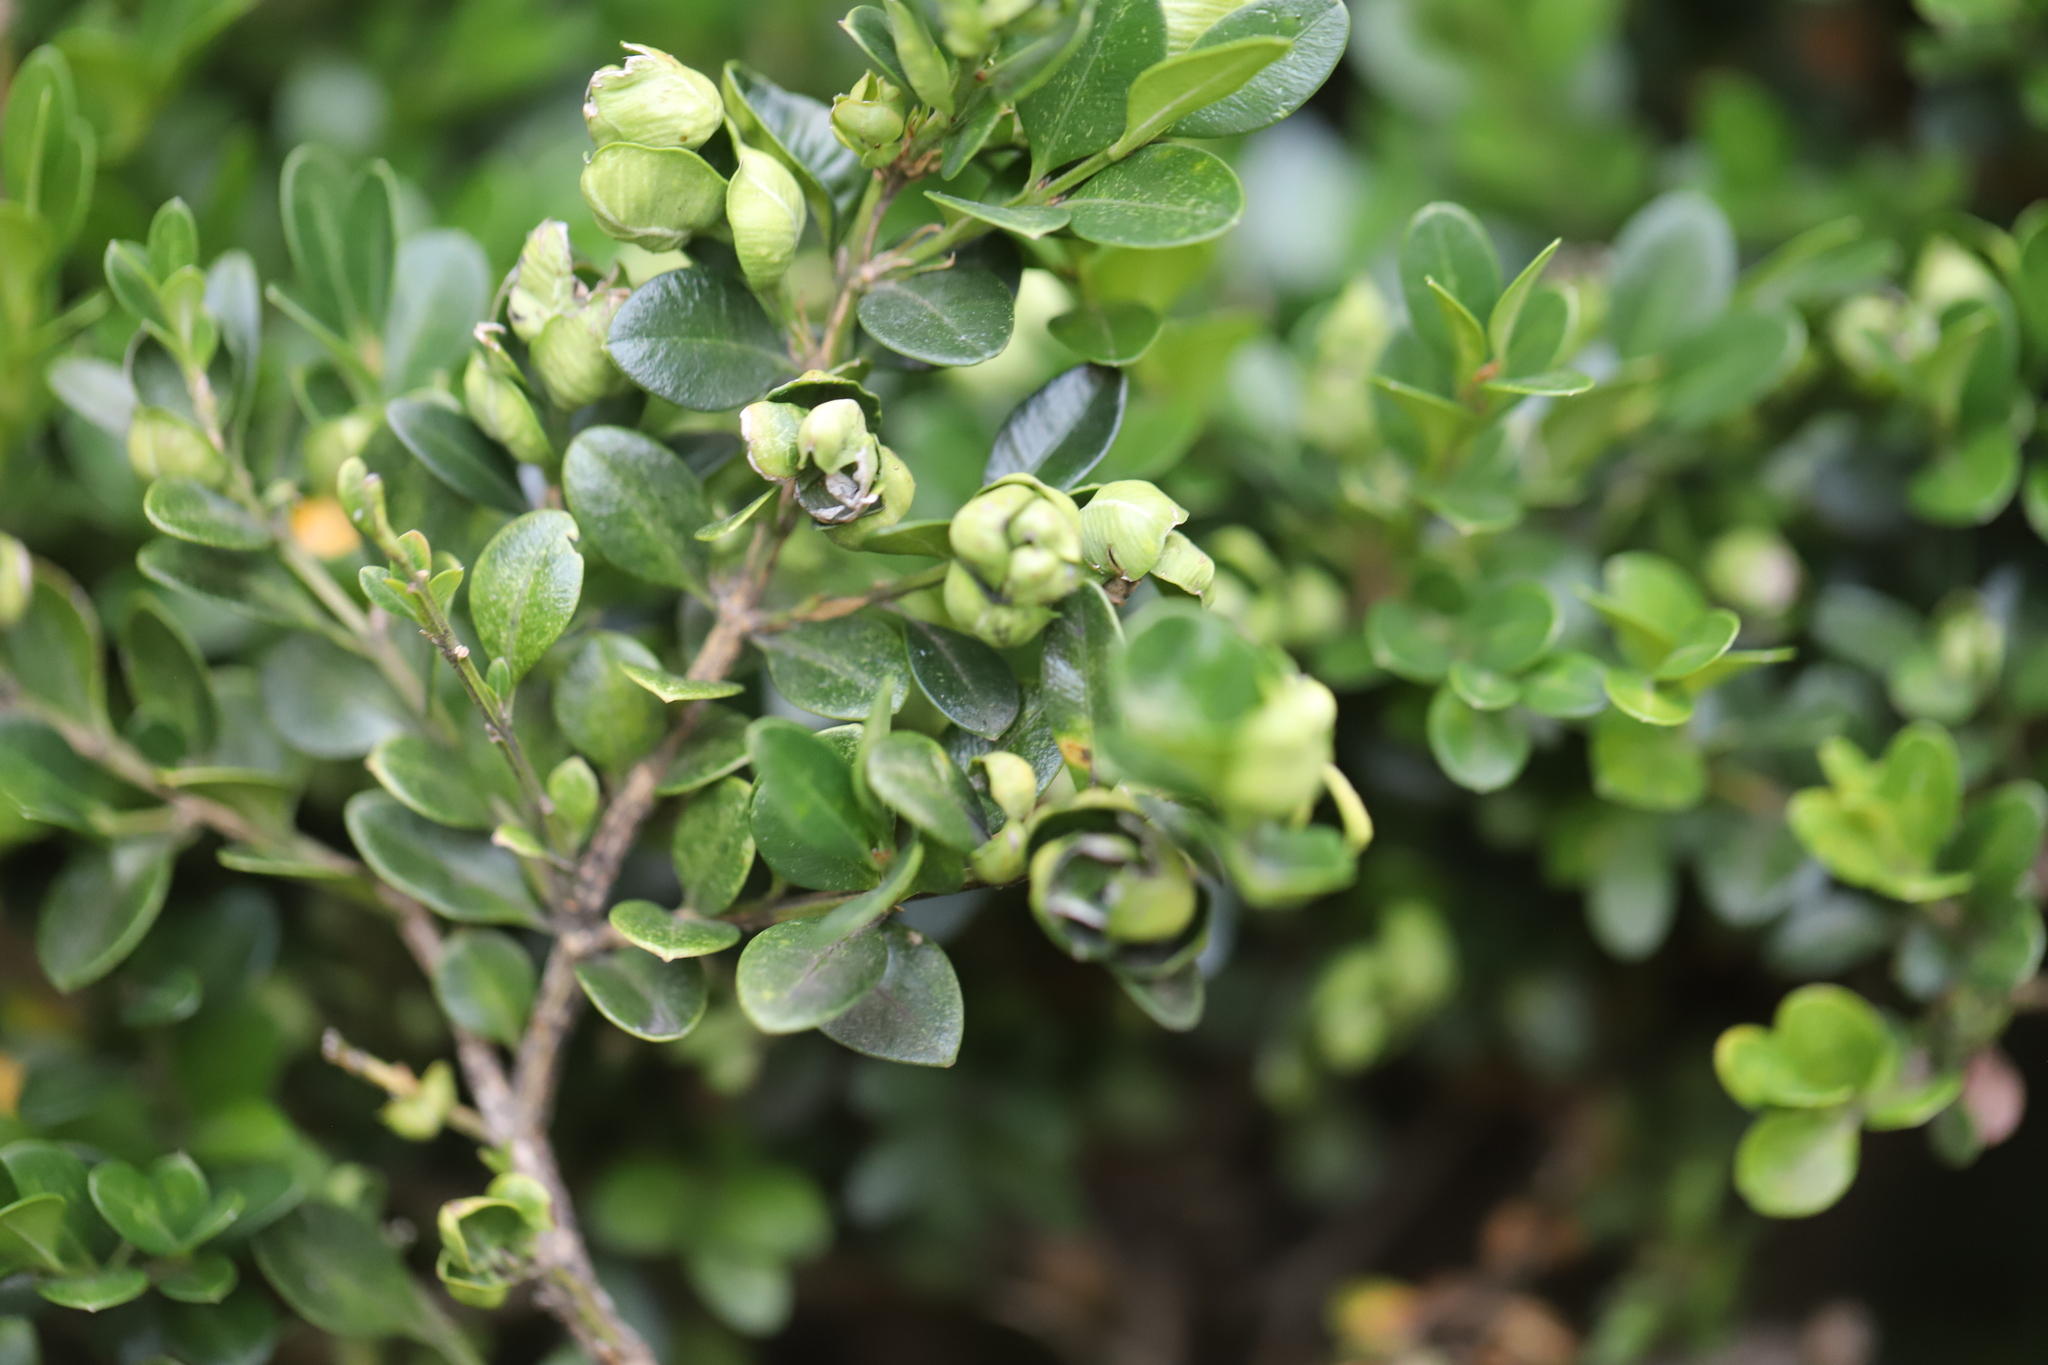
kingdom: Animalia
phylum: Arthropoda
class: Insecta
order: Hemiptera
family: Psyllidae
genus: Psylla
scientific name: Psylla buxi
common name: Boxwood psyllid
